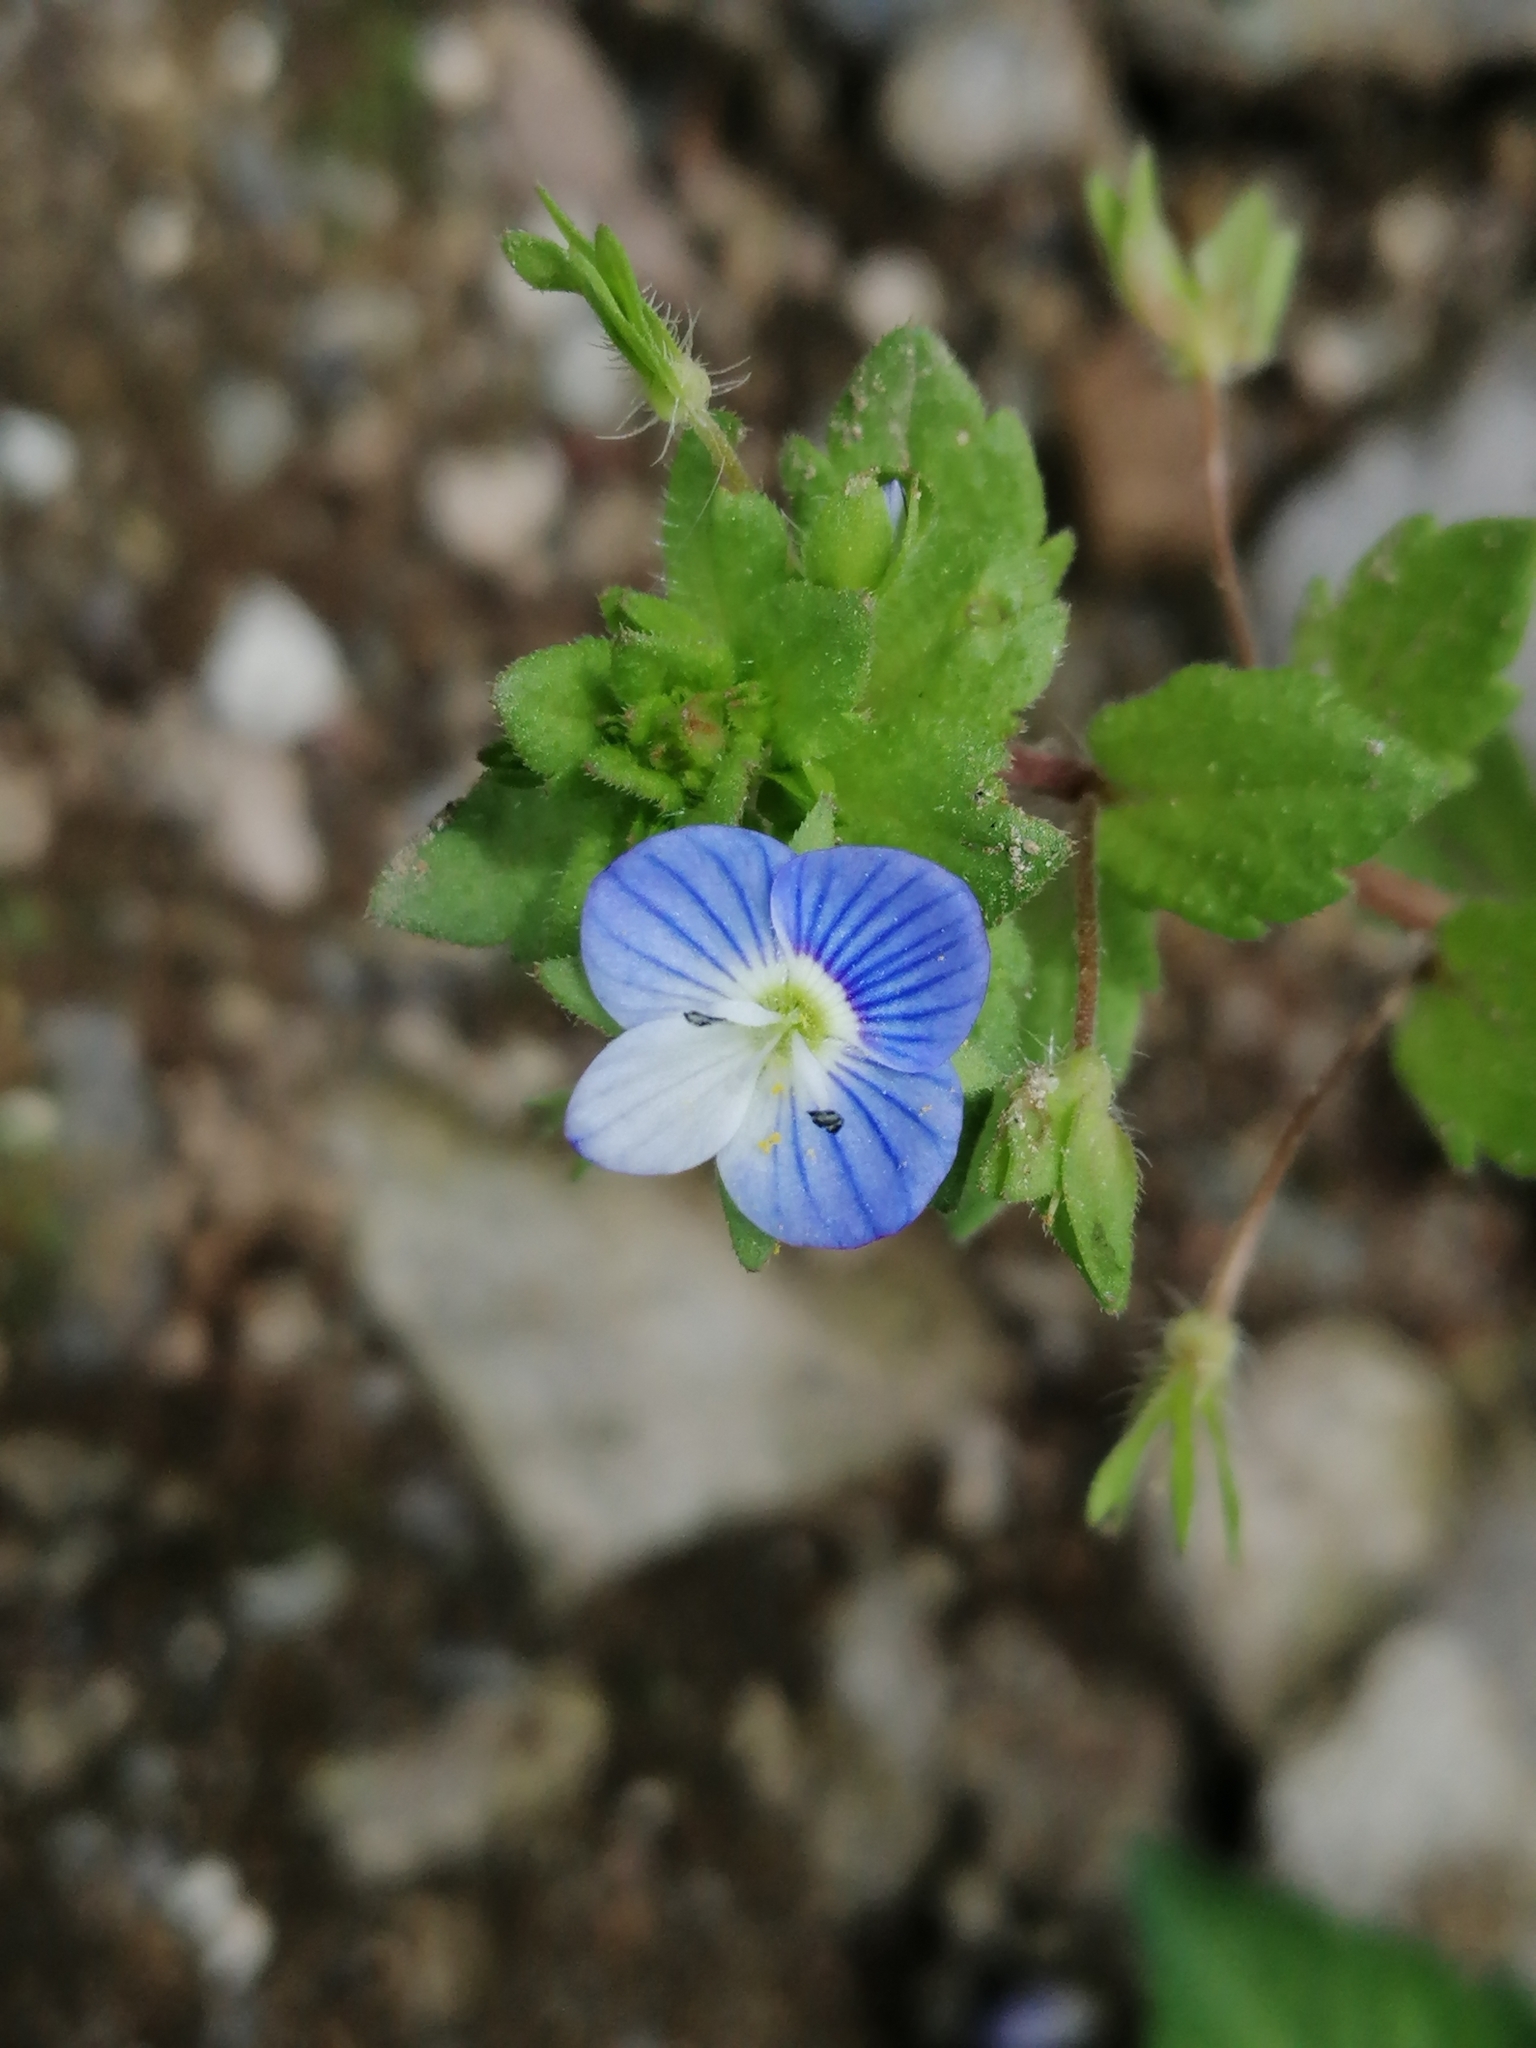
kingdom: Plantae
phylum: Tracheophyta
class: Magnoliopsida
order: Lamiales
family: Plantaginaceae
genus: Veronica
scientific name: Veronica persica
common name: Common field-speedwell
